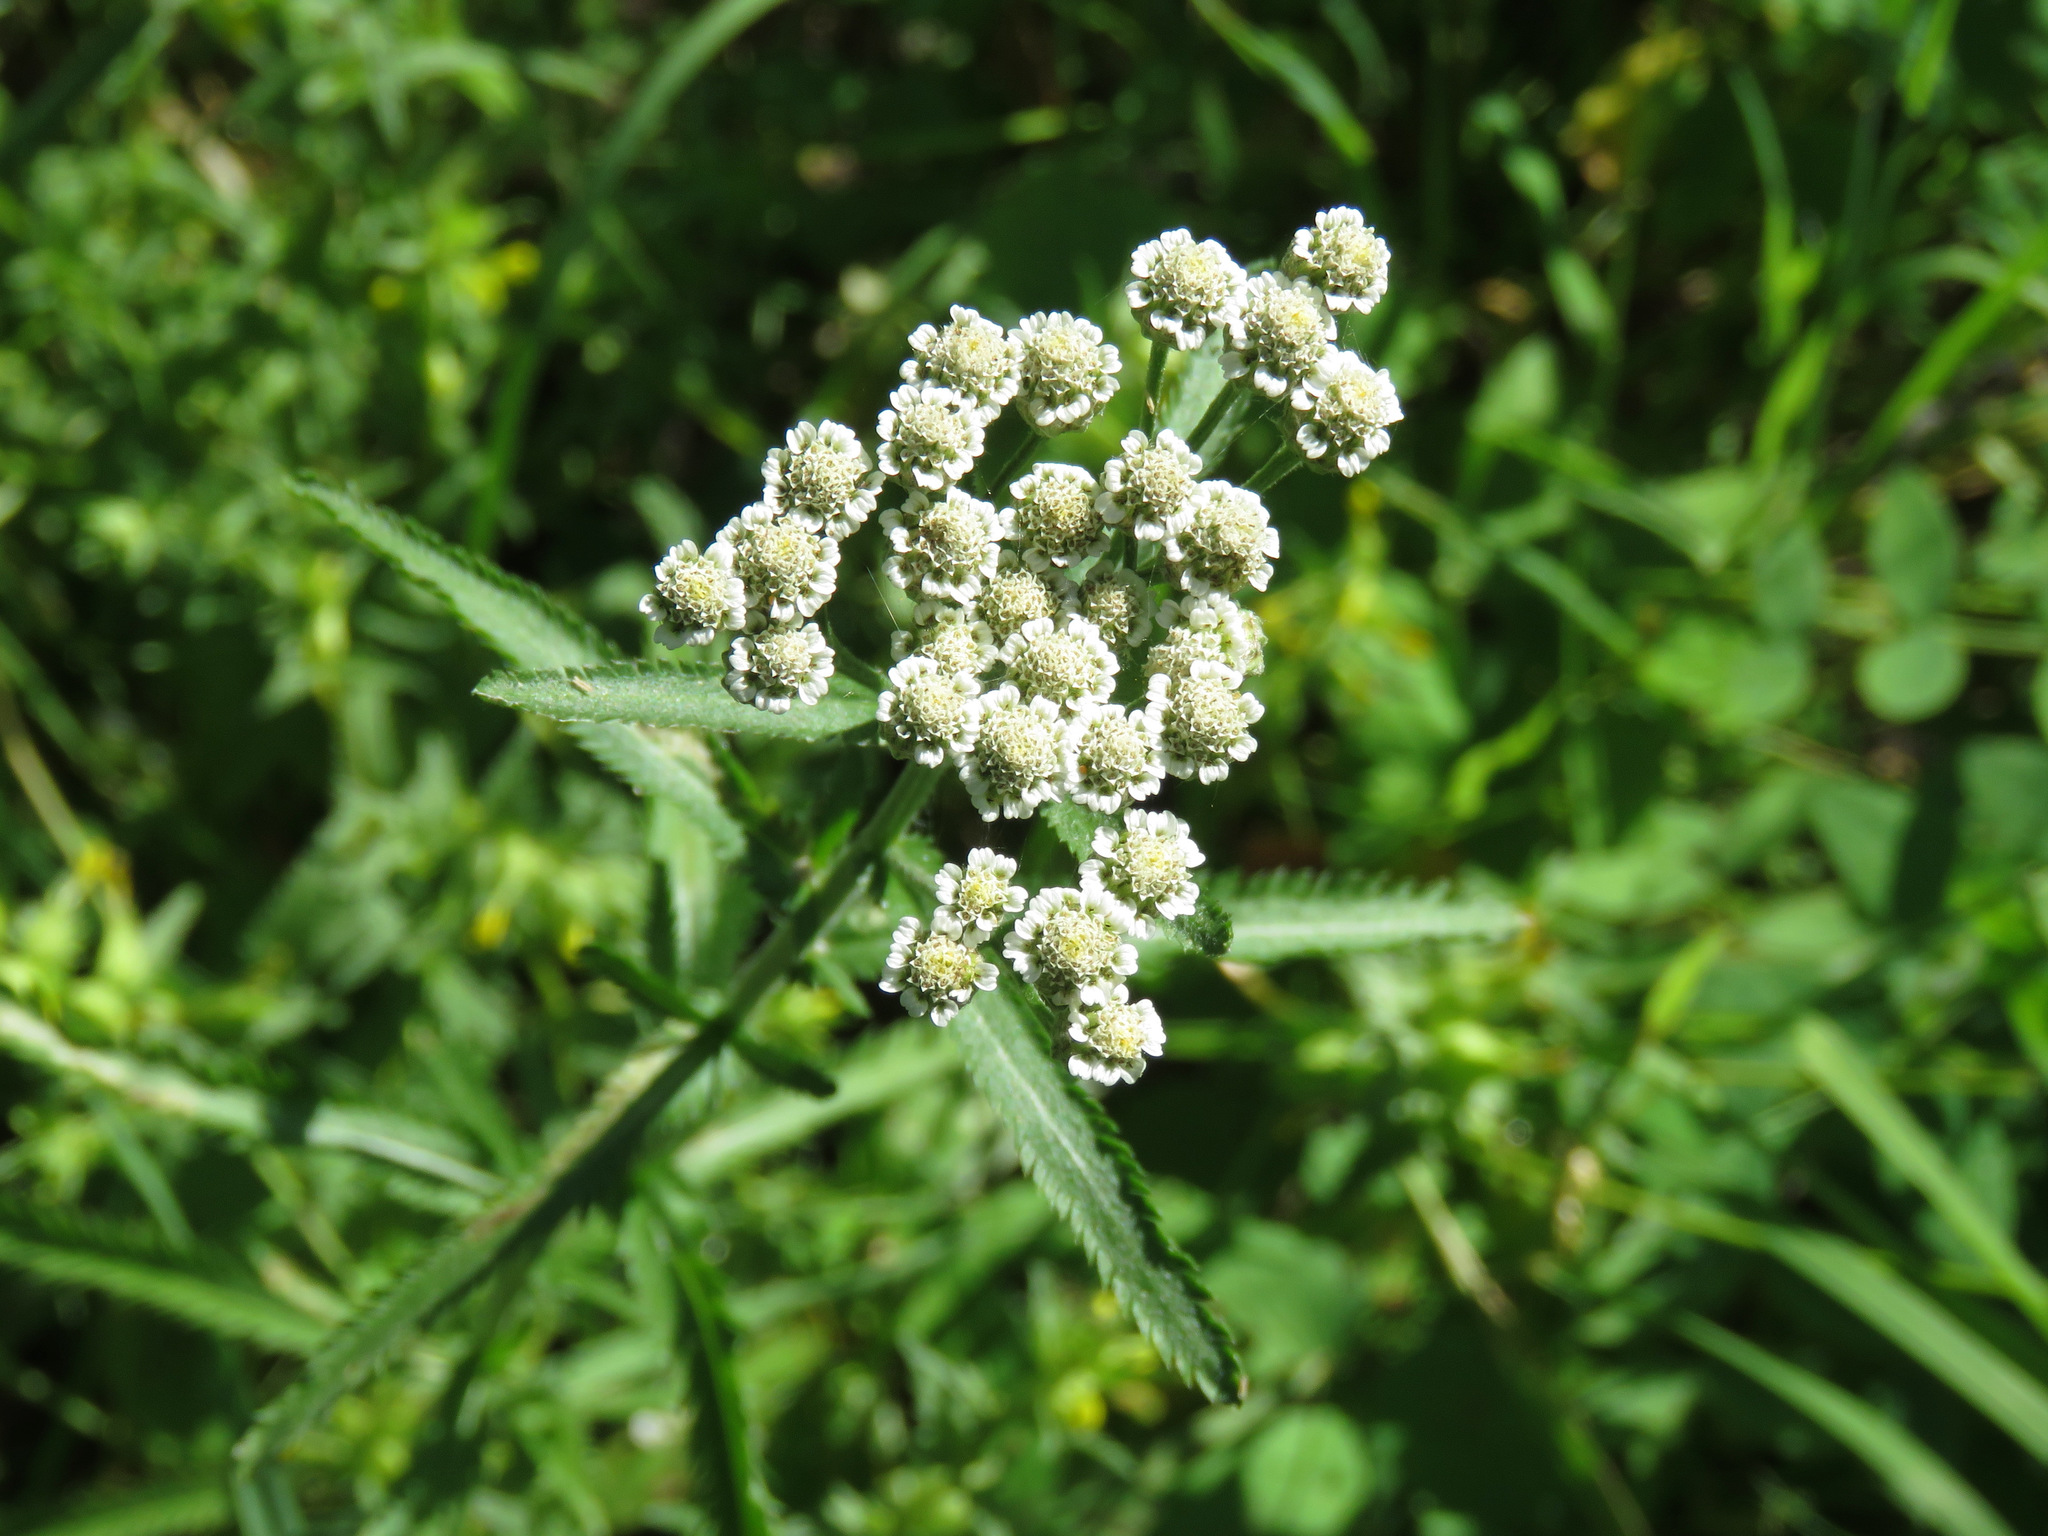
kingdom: Plantae
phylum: Tracheophyta
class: Magnoliopsida
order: Asterales
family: Asteraceae
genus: Achillea
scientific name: Achillea alpina
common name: Siberian yarrow
